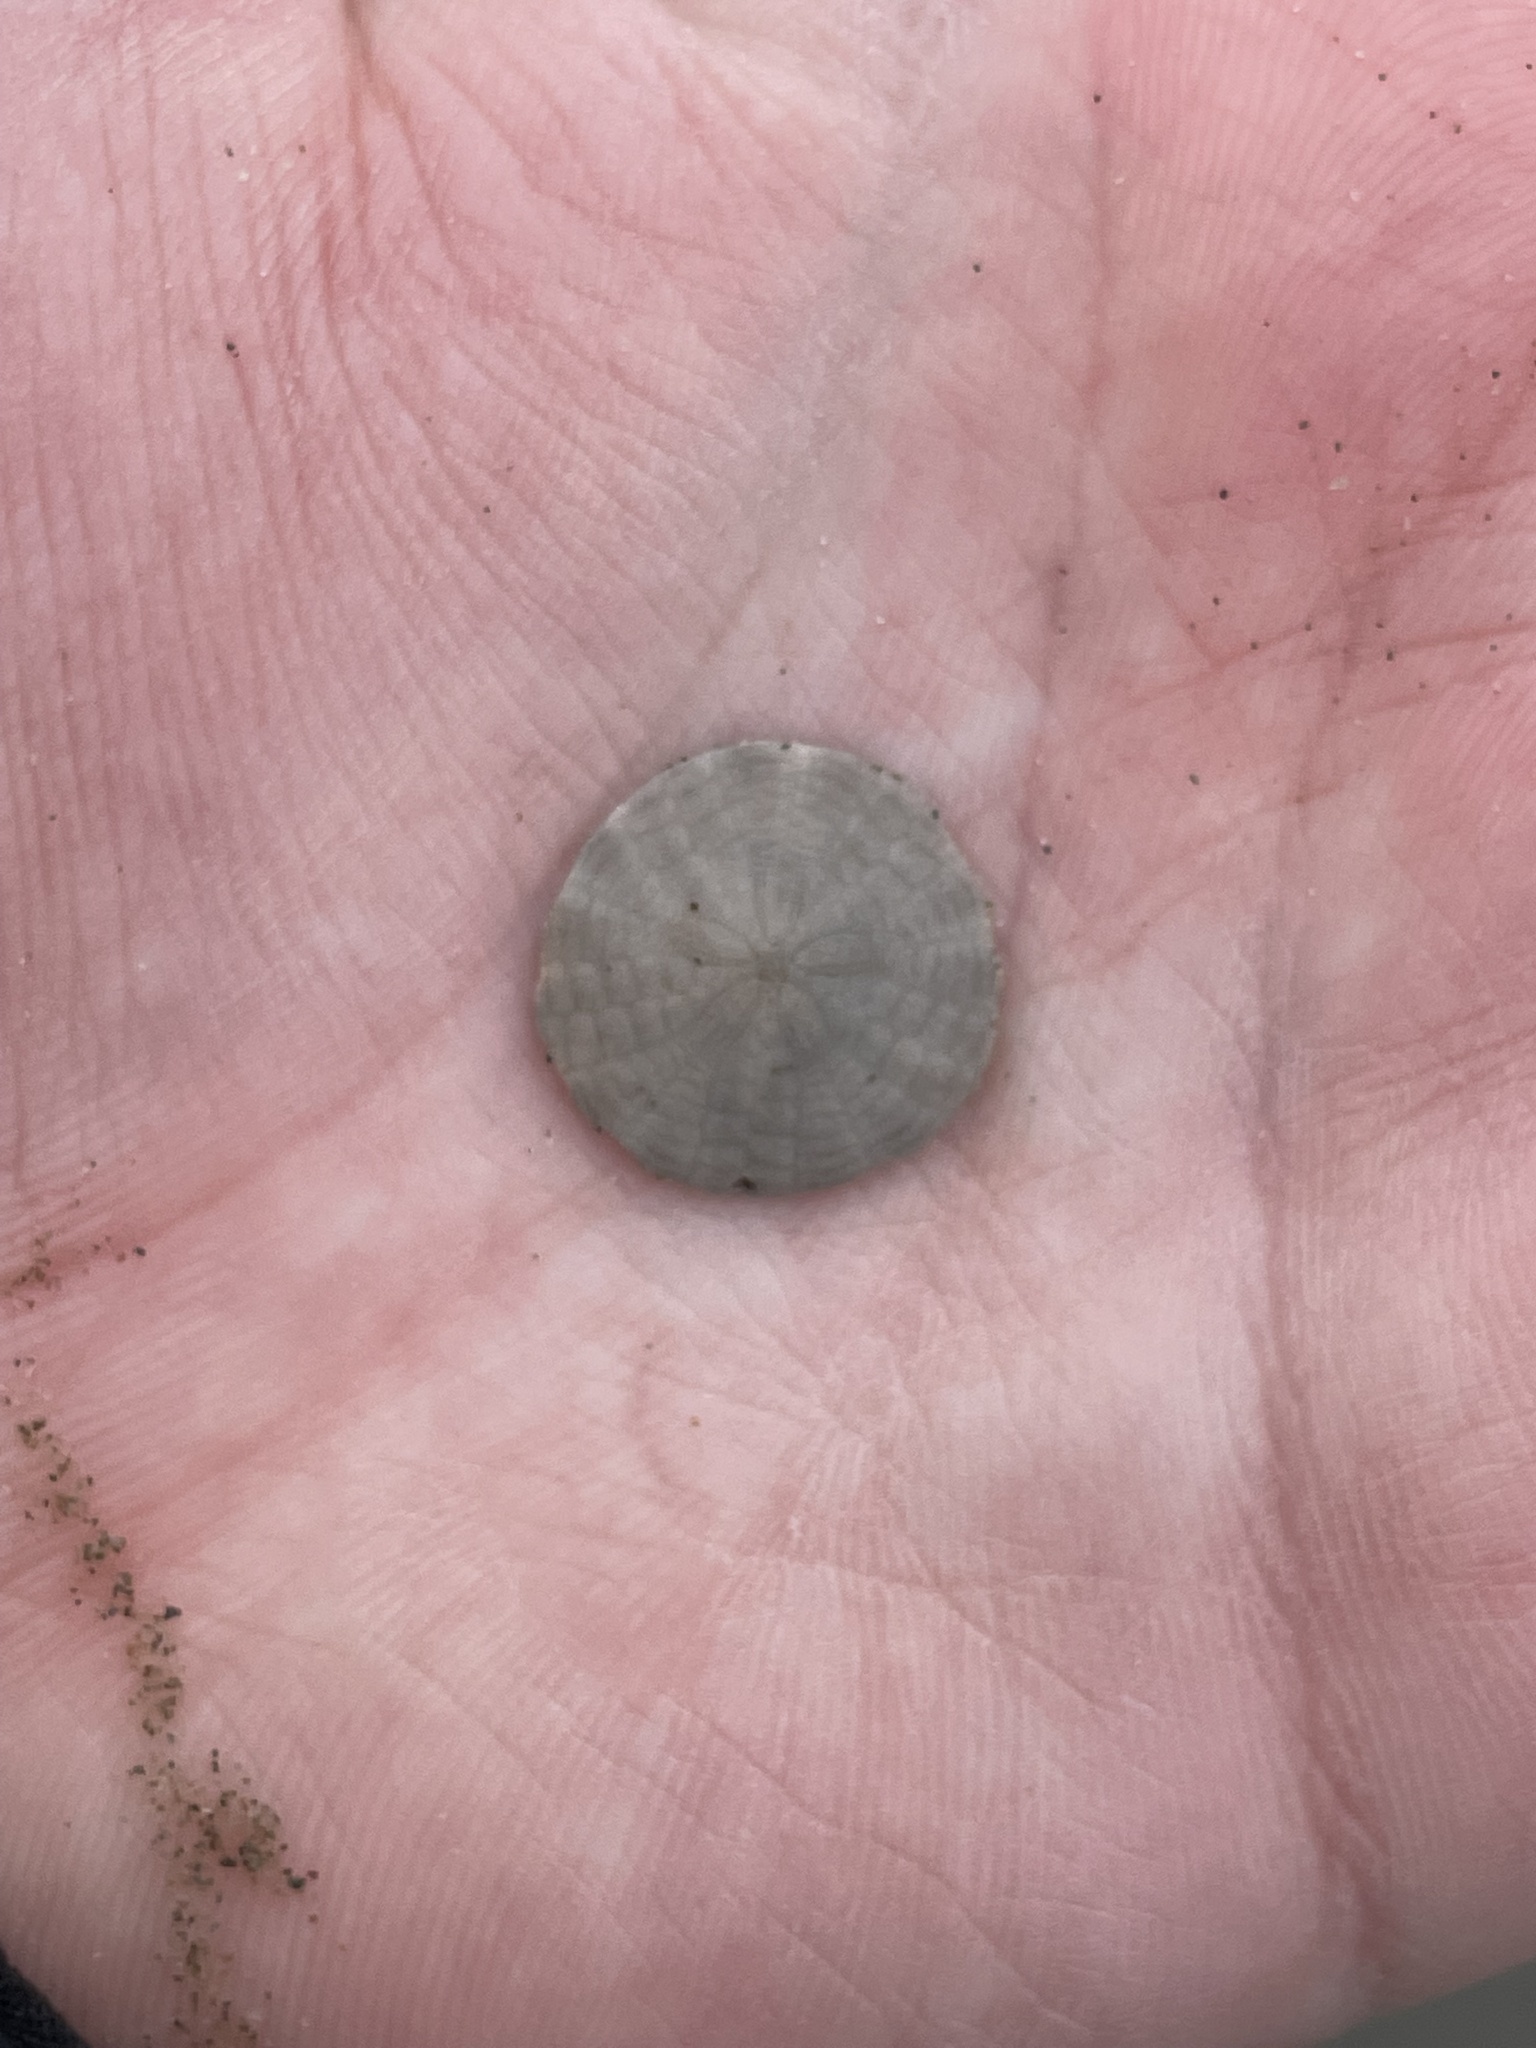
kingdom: Animalia
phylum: Echinodermata
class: Echinoidea
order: Echinolampadacea
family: Echinarachniidae
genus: Echinarachnius
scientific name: Echinarachnius parma
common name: Common sand dollar
